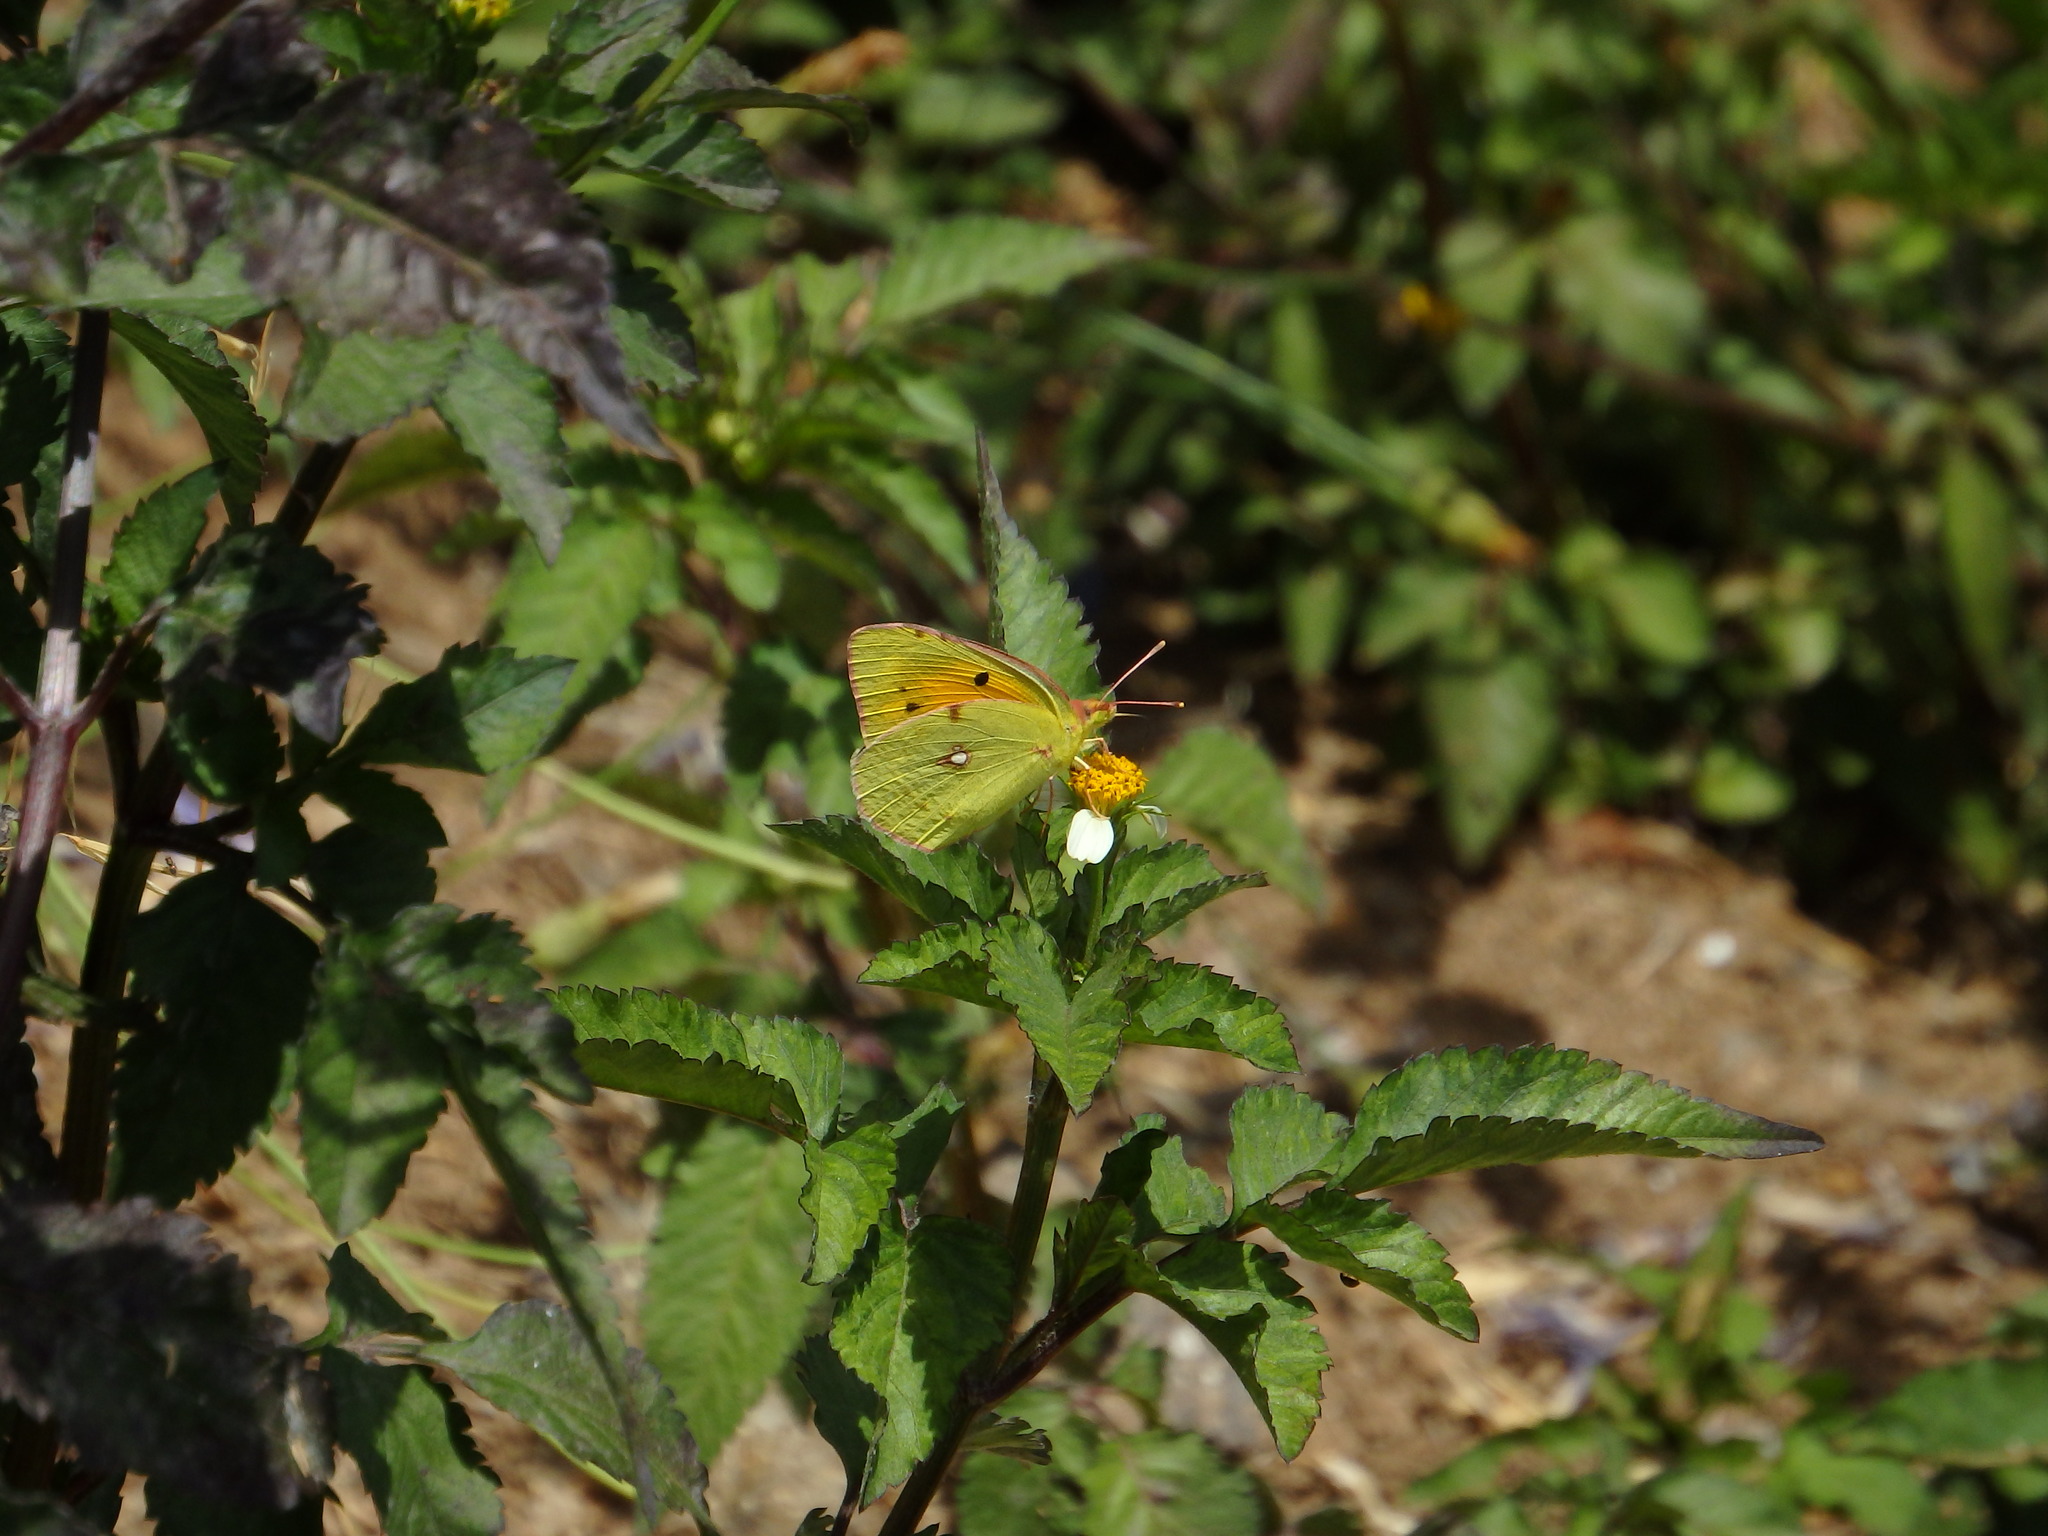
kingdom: Animalia
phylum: Arthropoda
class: Insecta
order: Lepidoptera
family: Pieridae
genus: Colias
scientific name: Colias croceus
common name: Clouded yellow
